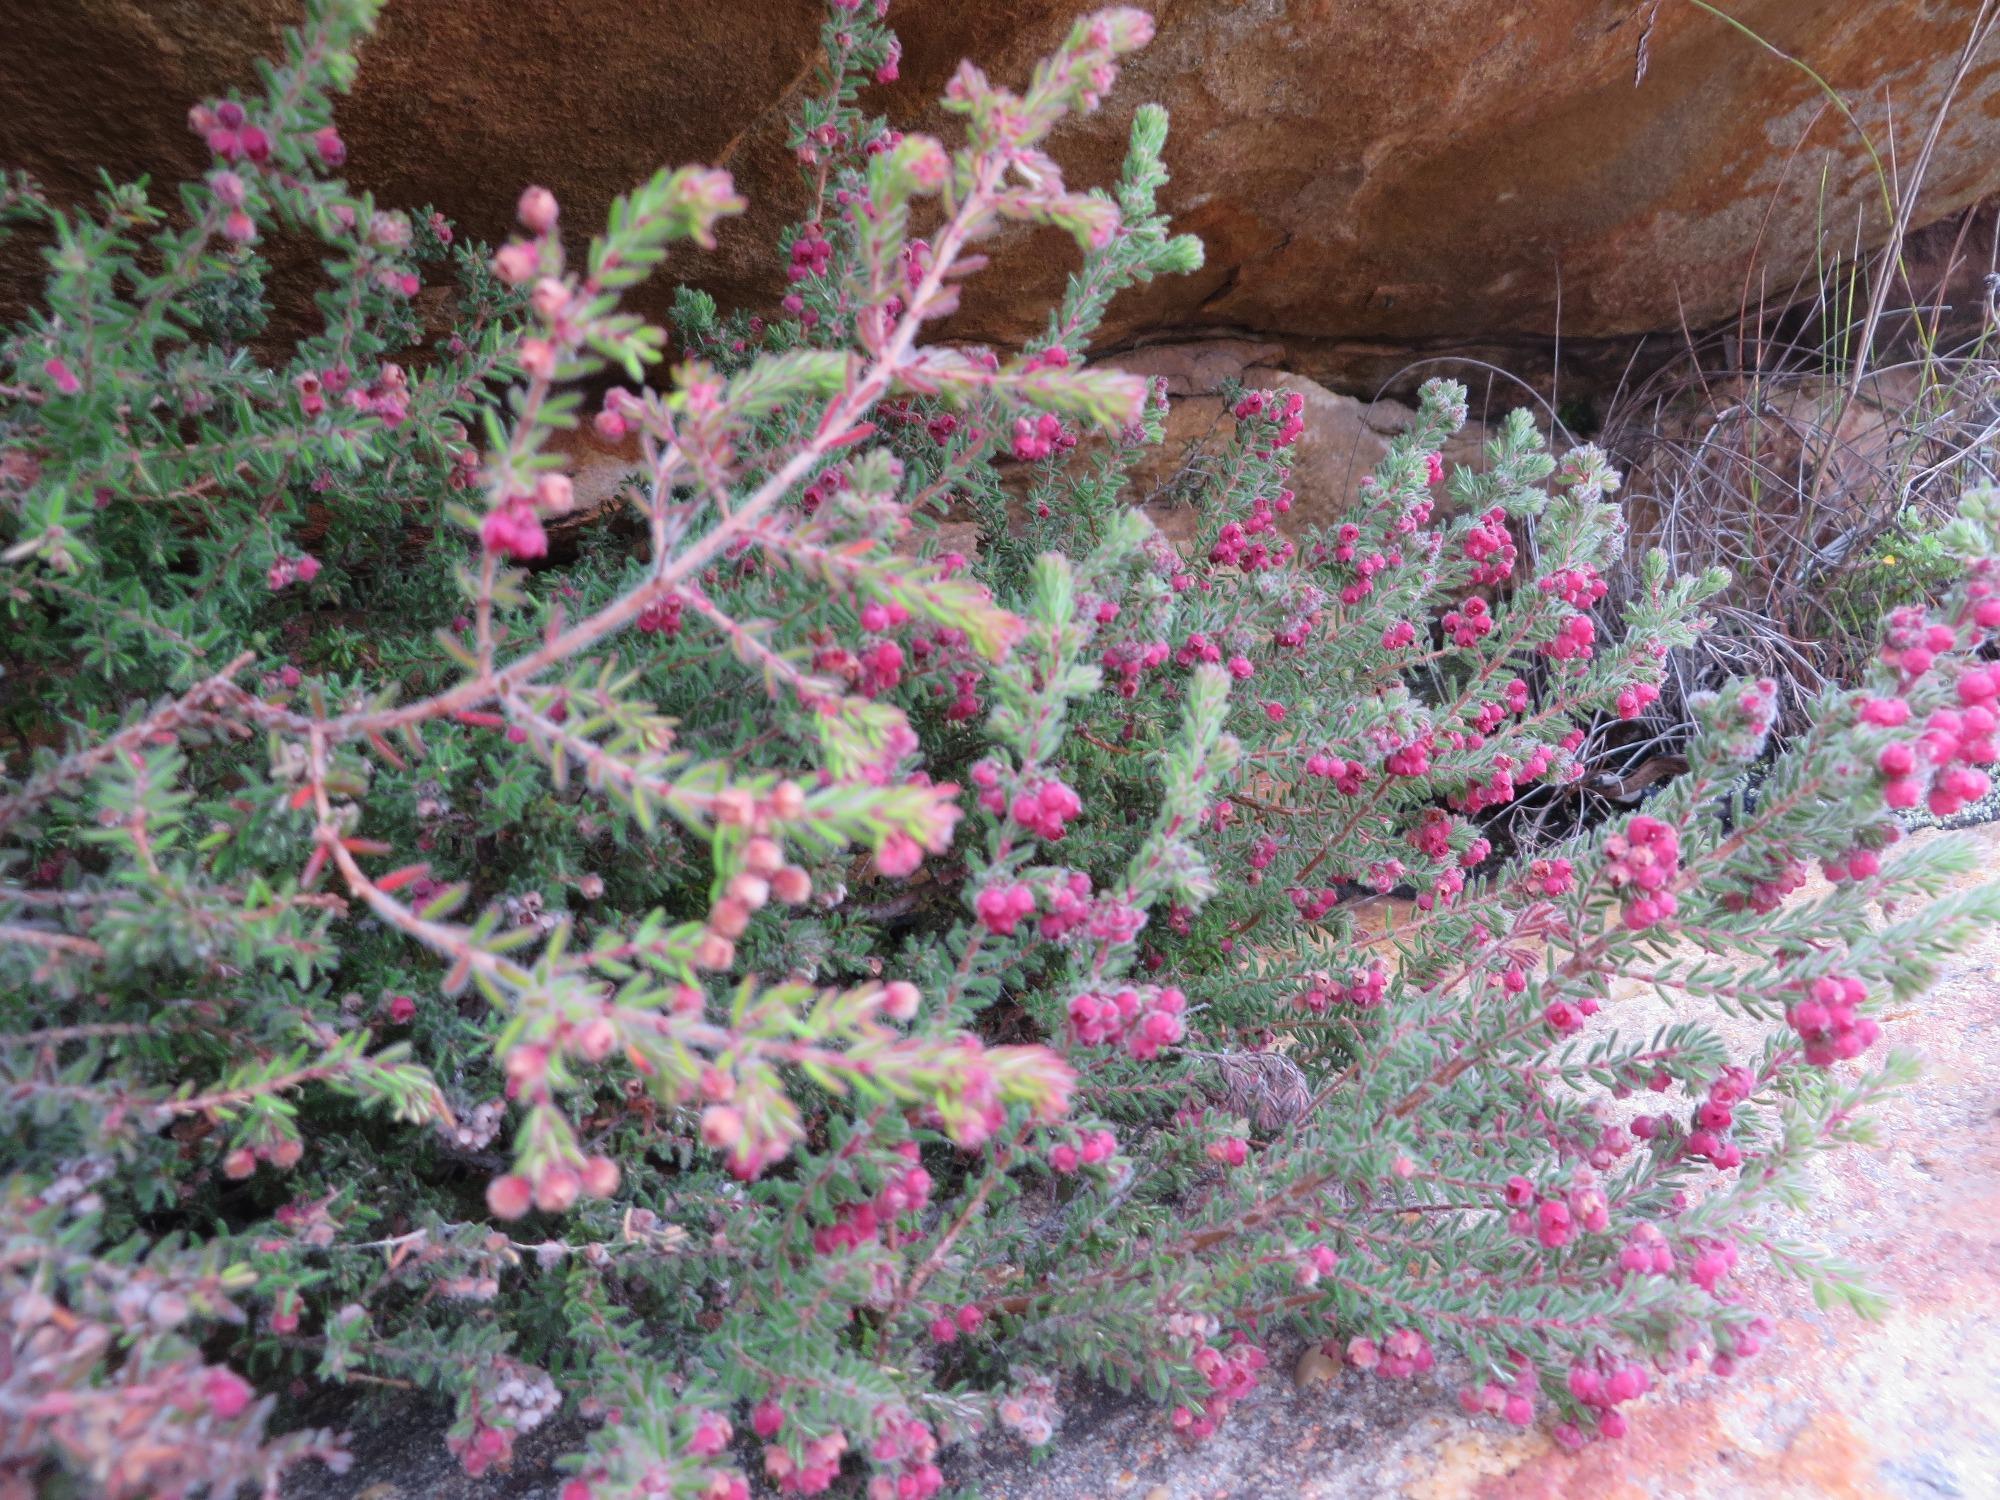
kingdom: Plantae
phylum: Tracheophyta
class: Magnoliopsida
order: Ericales
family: Ericaceae
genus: Erica
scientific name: Erica haematocodon
